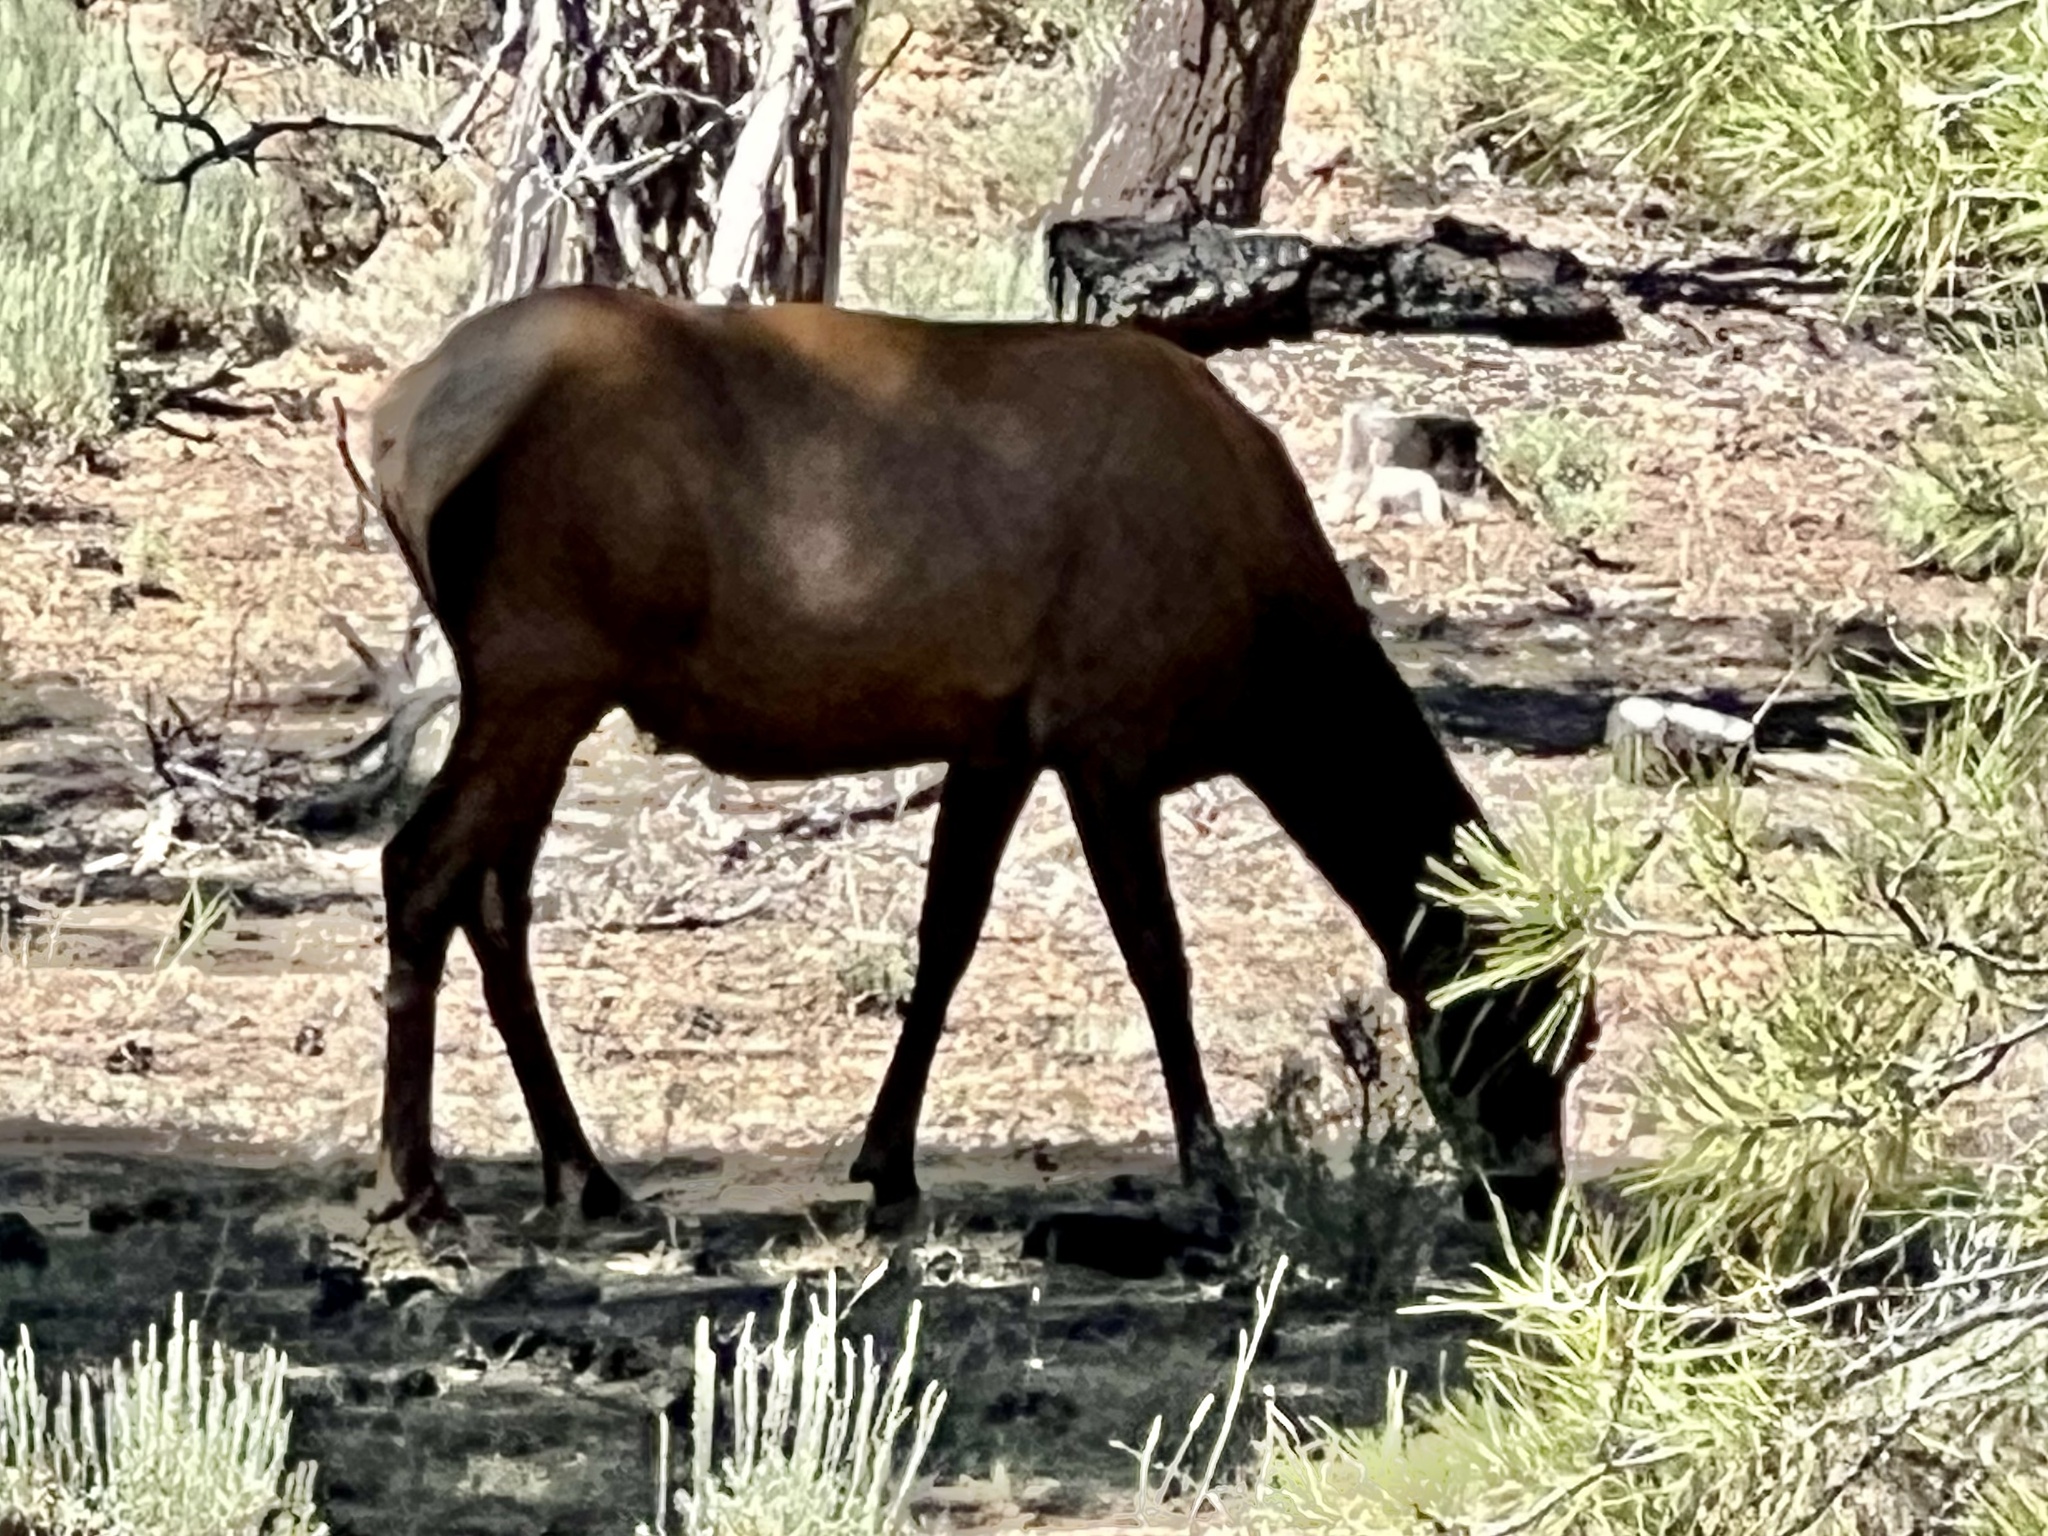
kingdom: Animalia
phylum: Chordata
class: Mammalia
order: Artiodactyla
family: Cervidae
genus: Cervus
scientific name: Cervus elaphus
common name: Red deer
